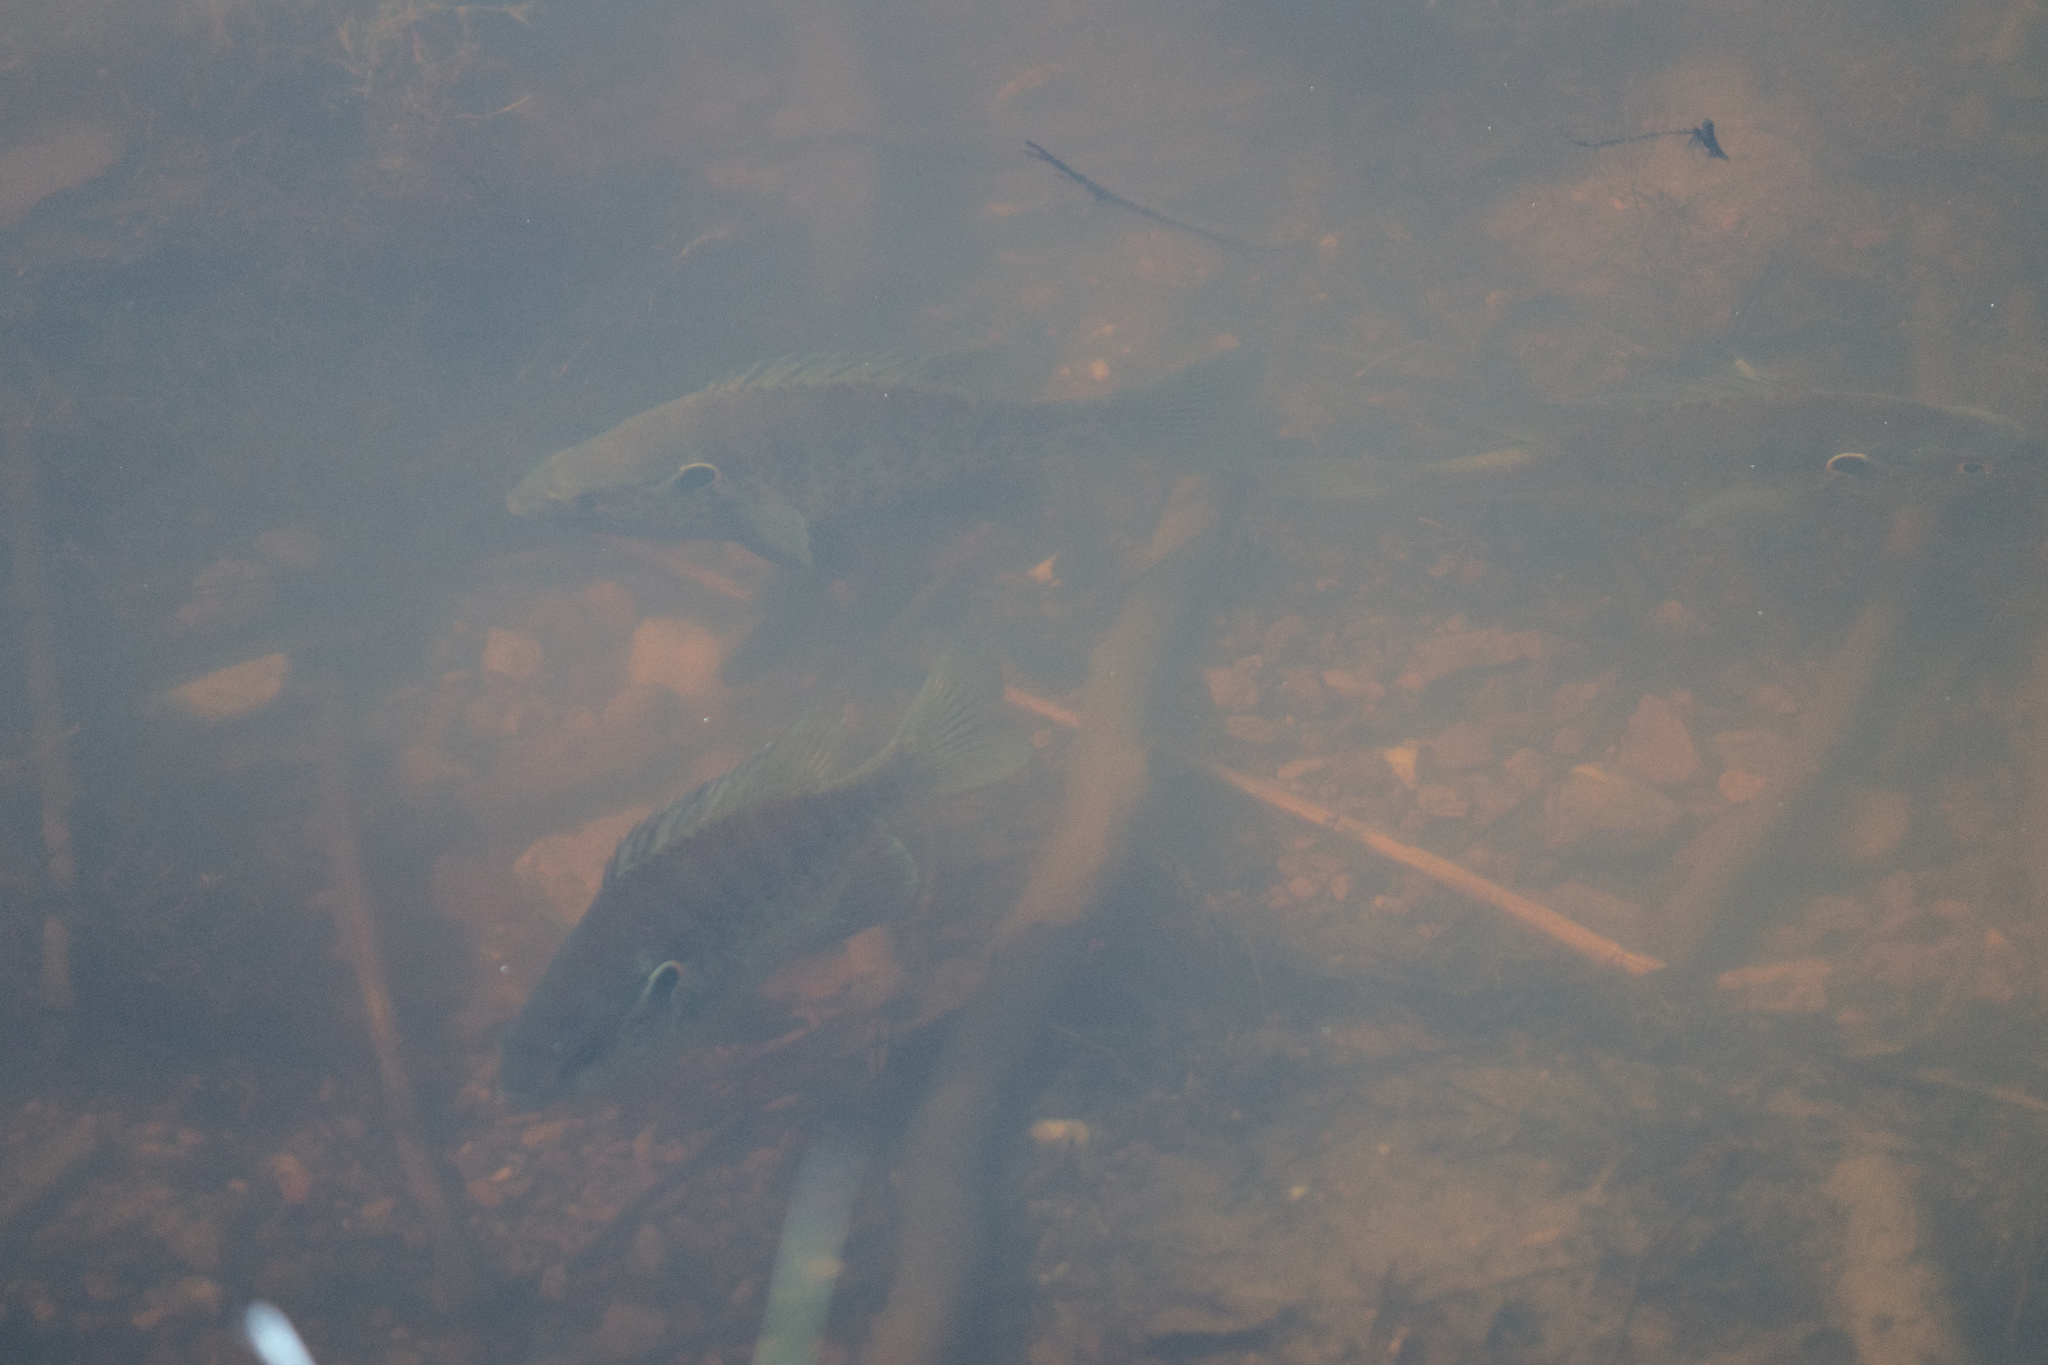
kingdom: Animalia
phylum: Chordata
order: Perciformes
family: Centrarchidae
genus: Lepomis
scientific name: Lepomis microlophus
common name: Redear sunfish
